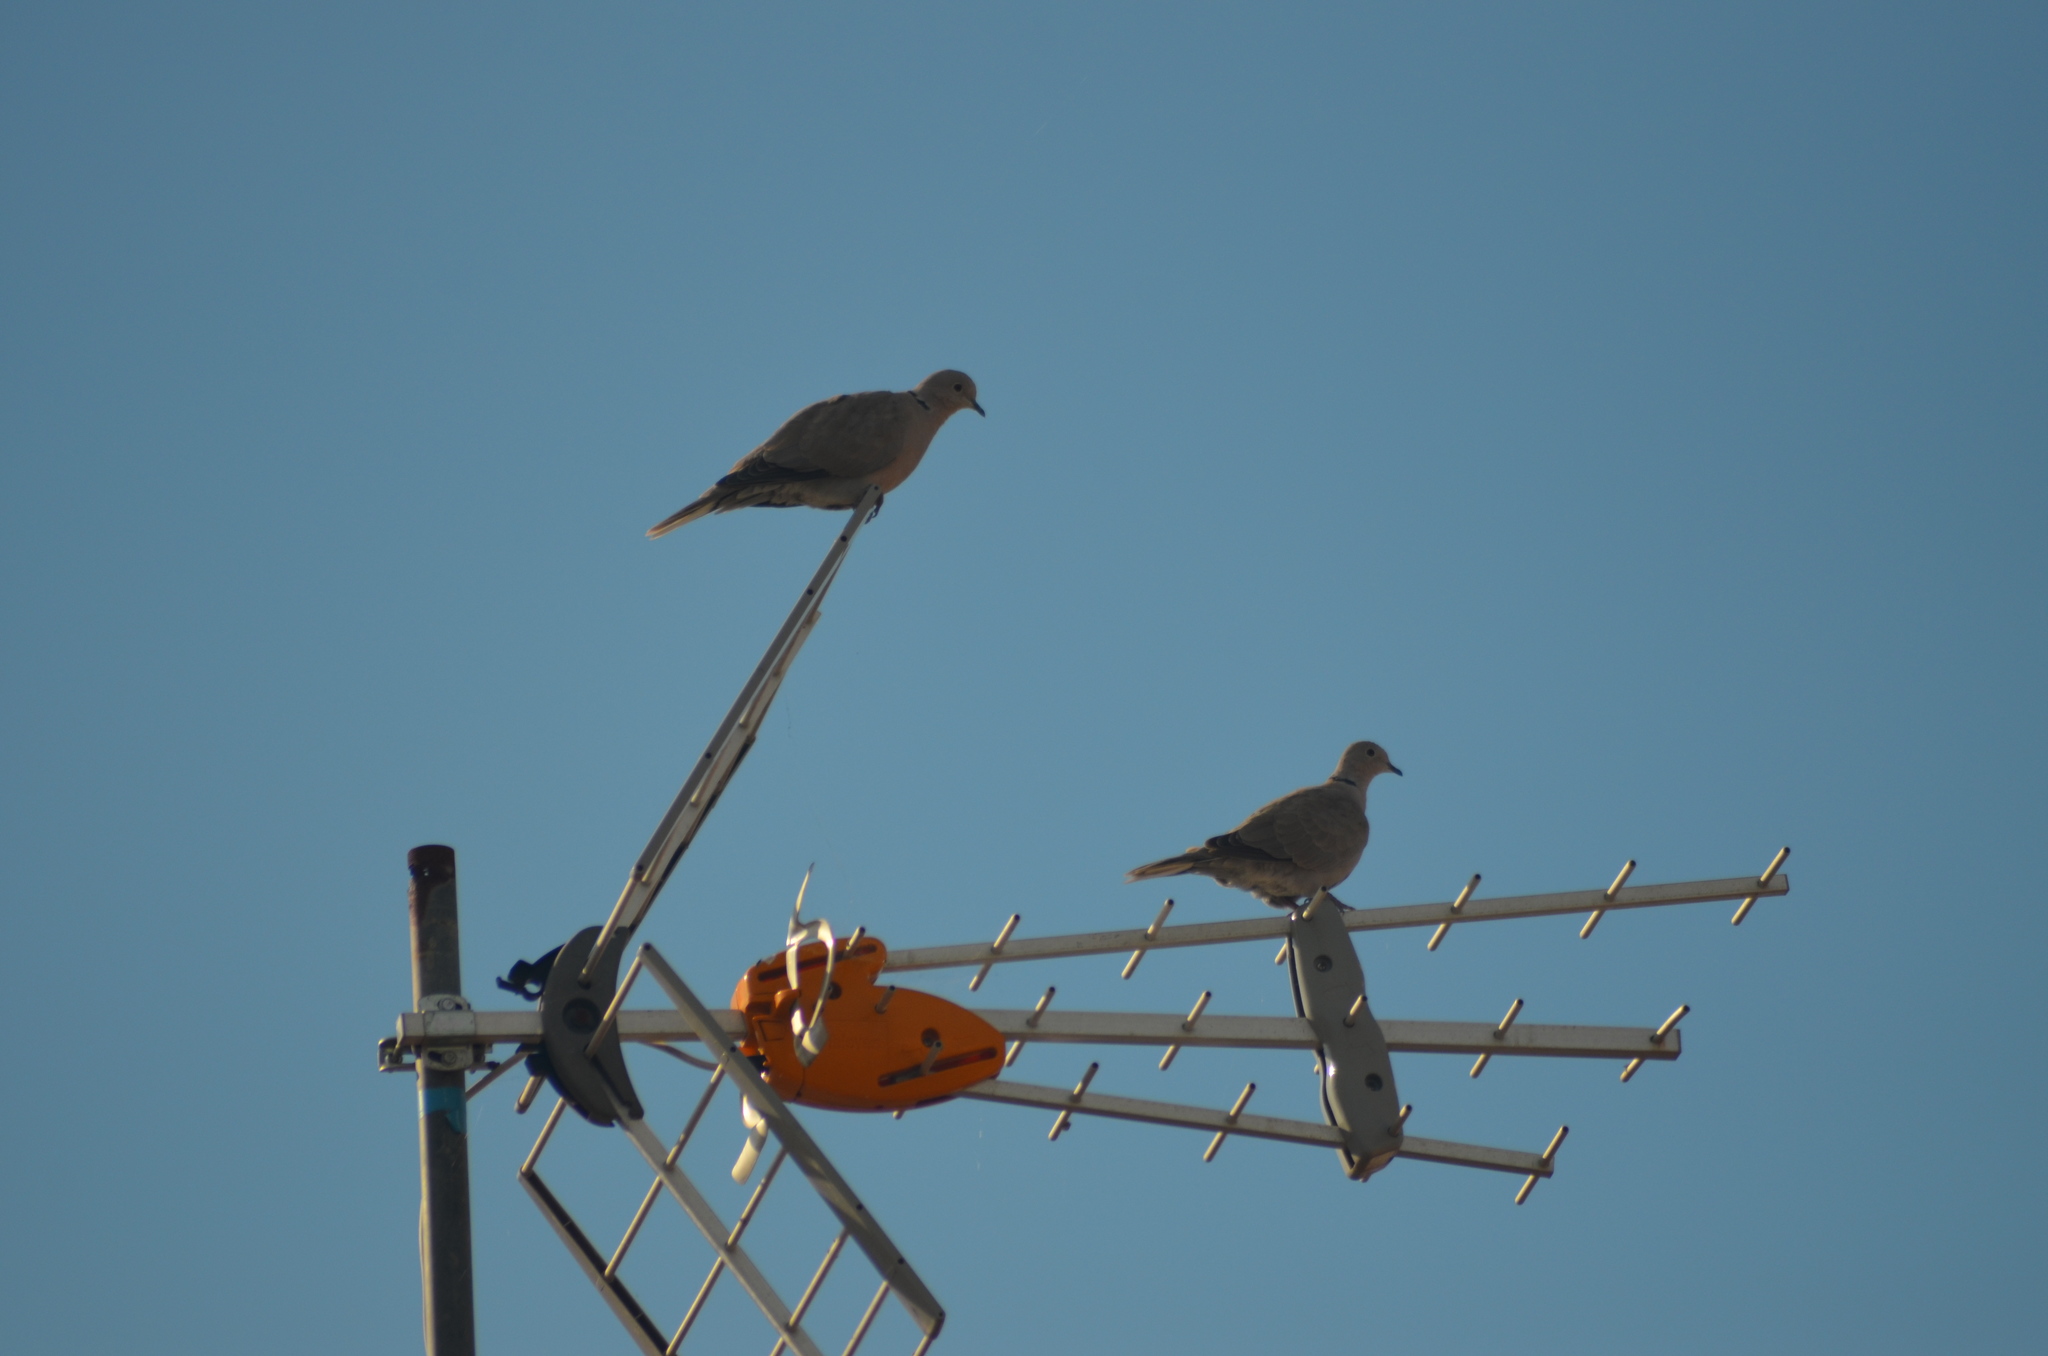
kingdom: Animalia
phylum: Chordata
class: Aves
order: Columbiformes
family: Columbidae
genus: Streptopelia
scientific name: Streptopelia decaocto
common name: Eurasian collared dove
